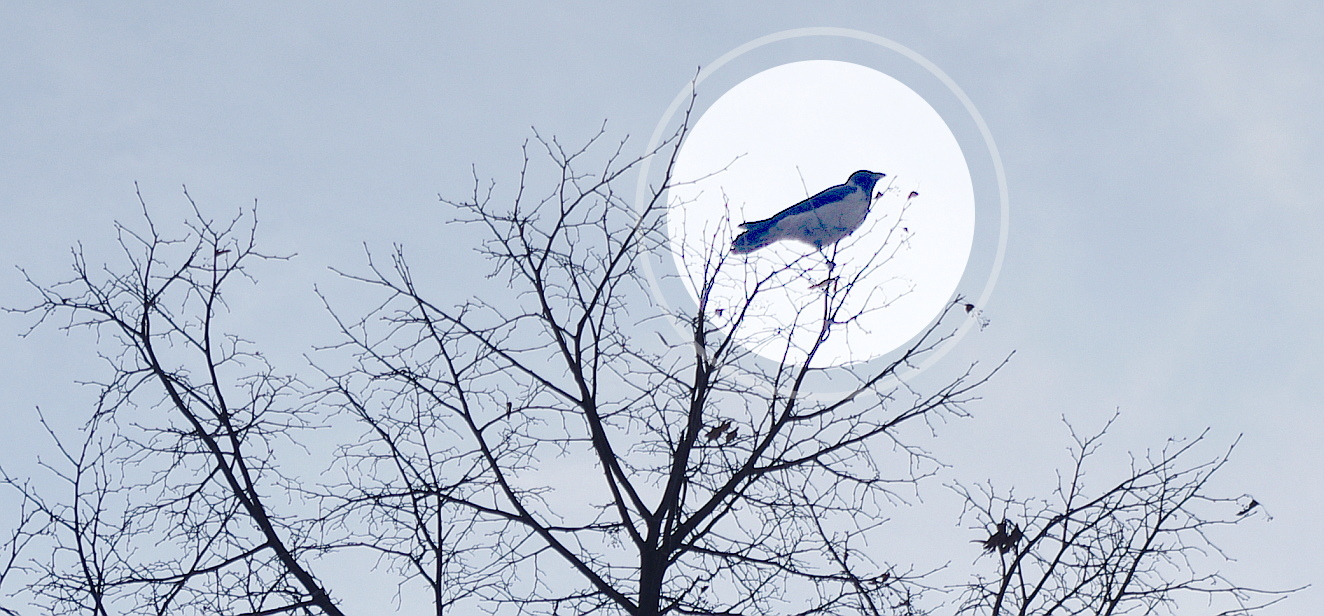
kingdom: Animalia
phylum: Chordata
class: Aves
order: Passeriformes
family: Corvidae
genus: Corvus
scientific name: Corvus cornix
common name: Hooded crow
